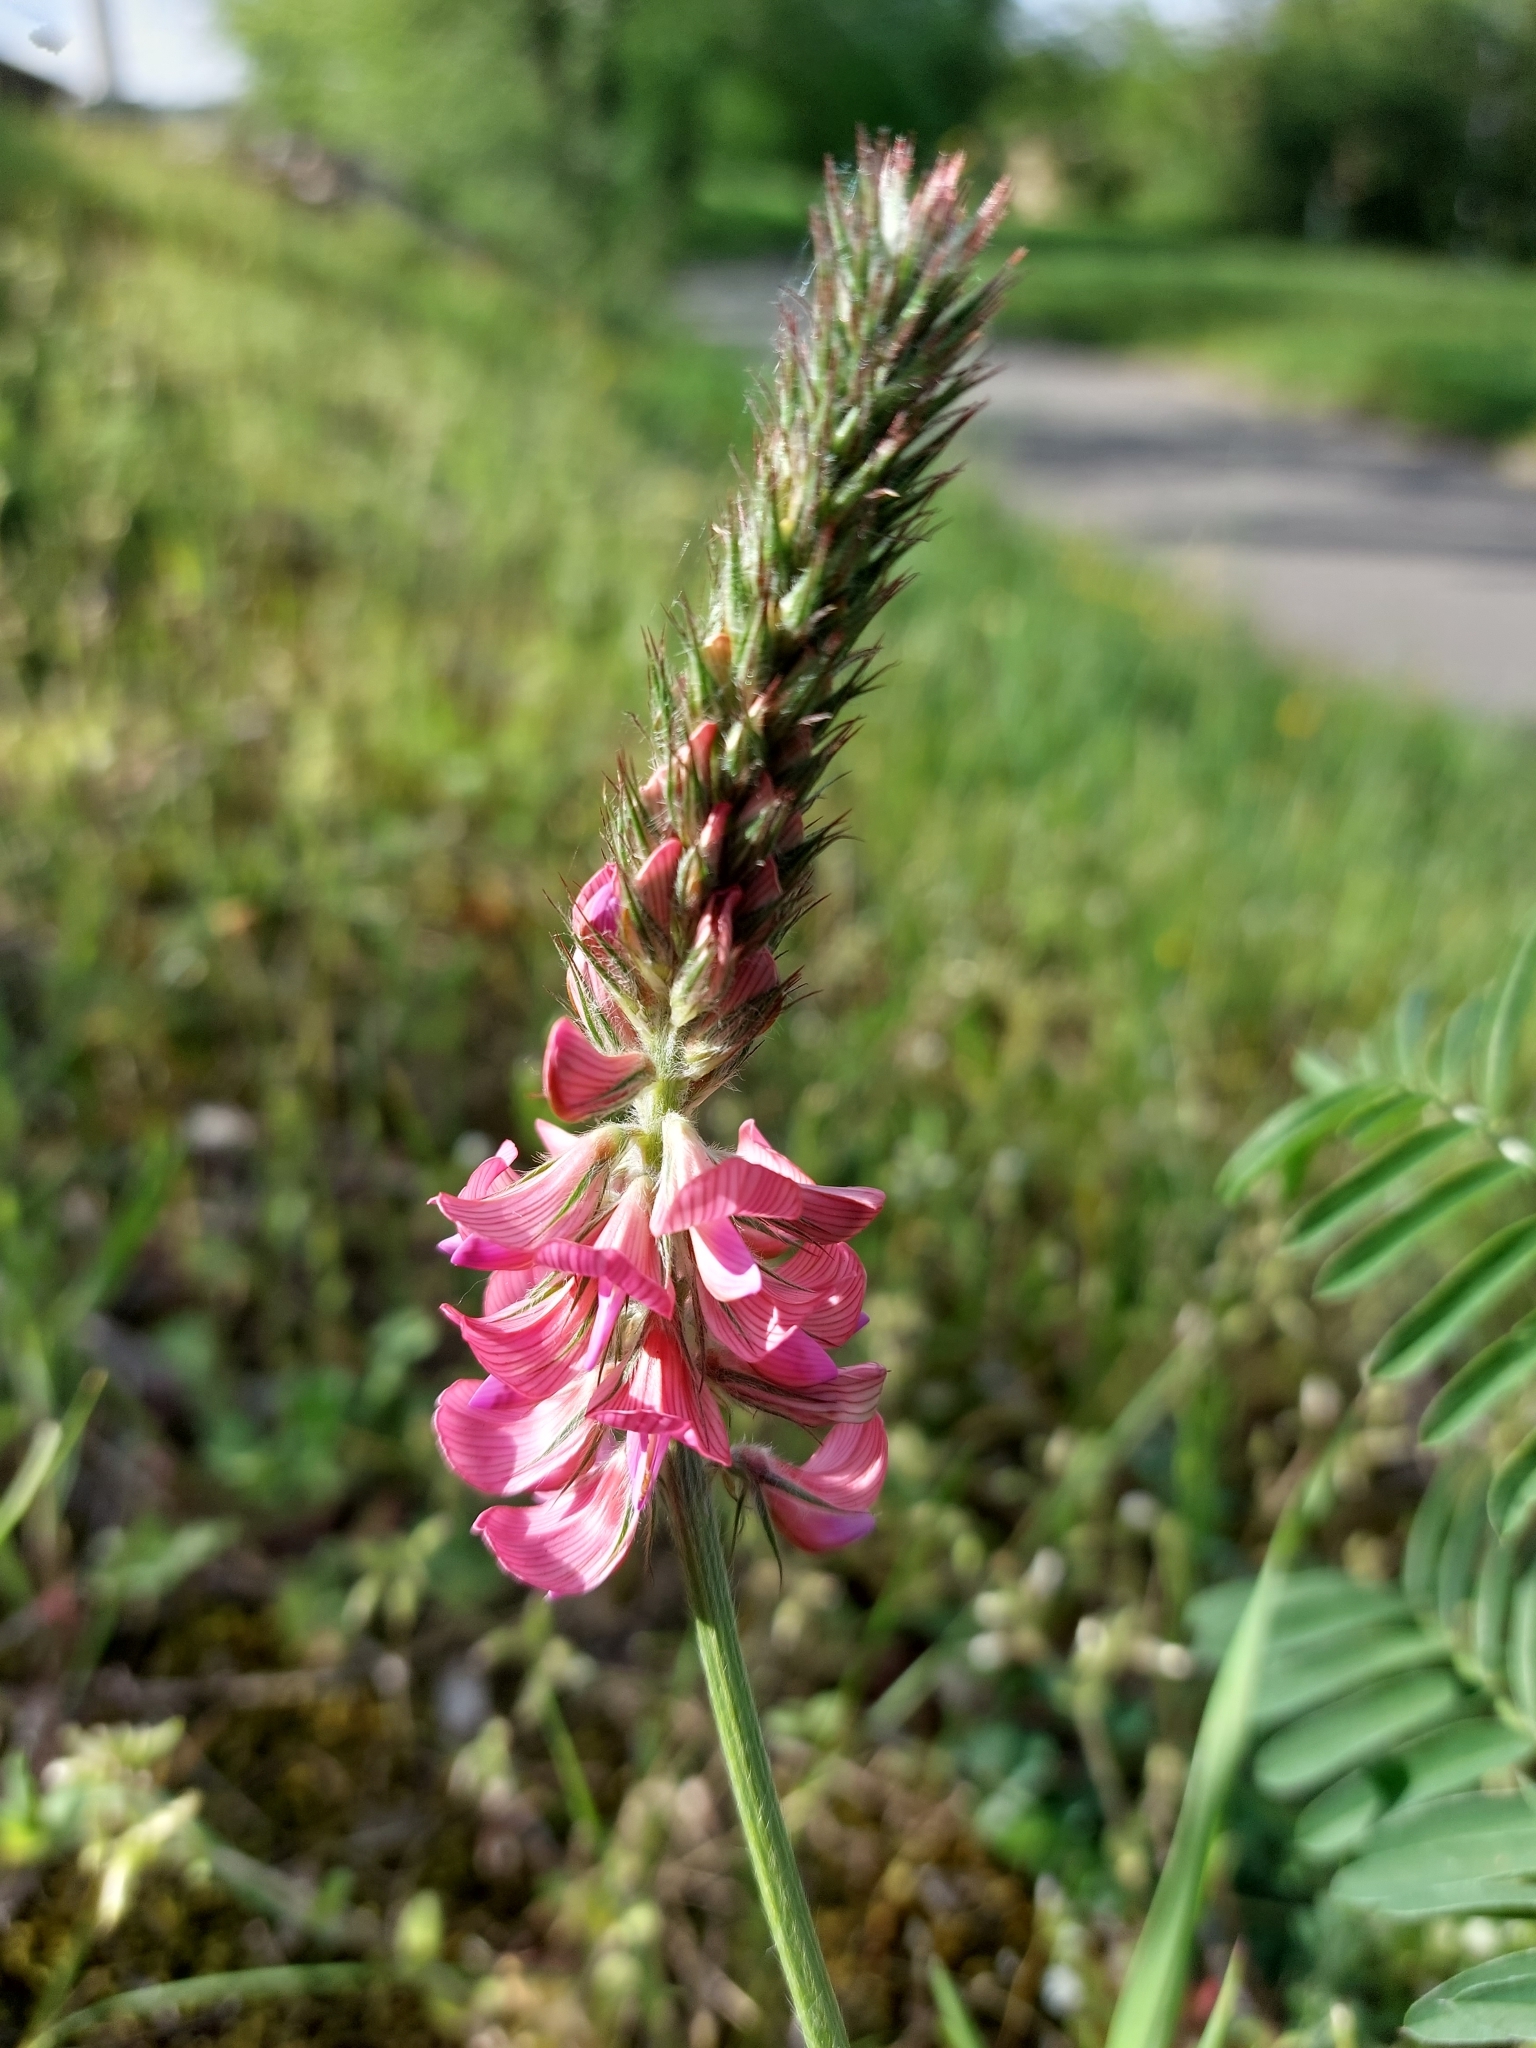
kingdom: Plantae
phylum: Tracheophyta
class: Magnoliopsida
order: Fabales
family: Fabaceae
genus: Onobrychis
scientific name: Onobrychis viciifolia
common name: Sainfoin
